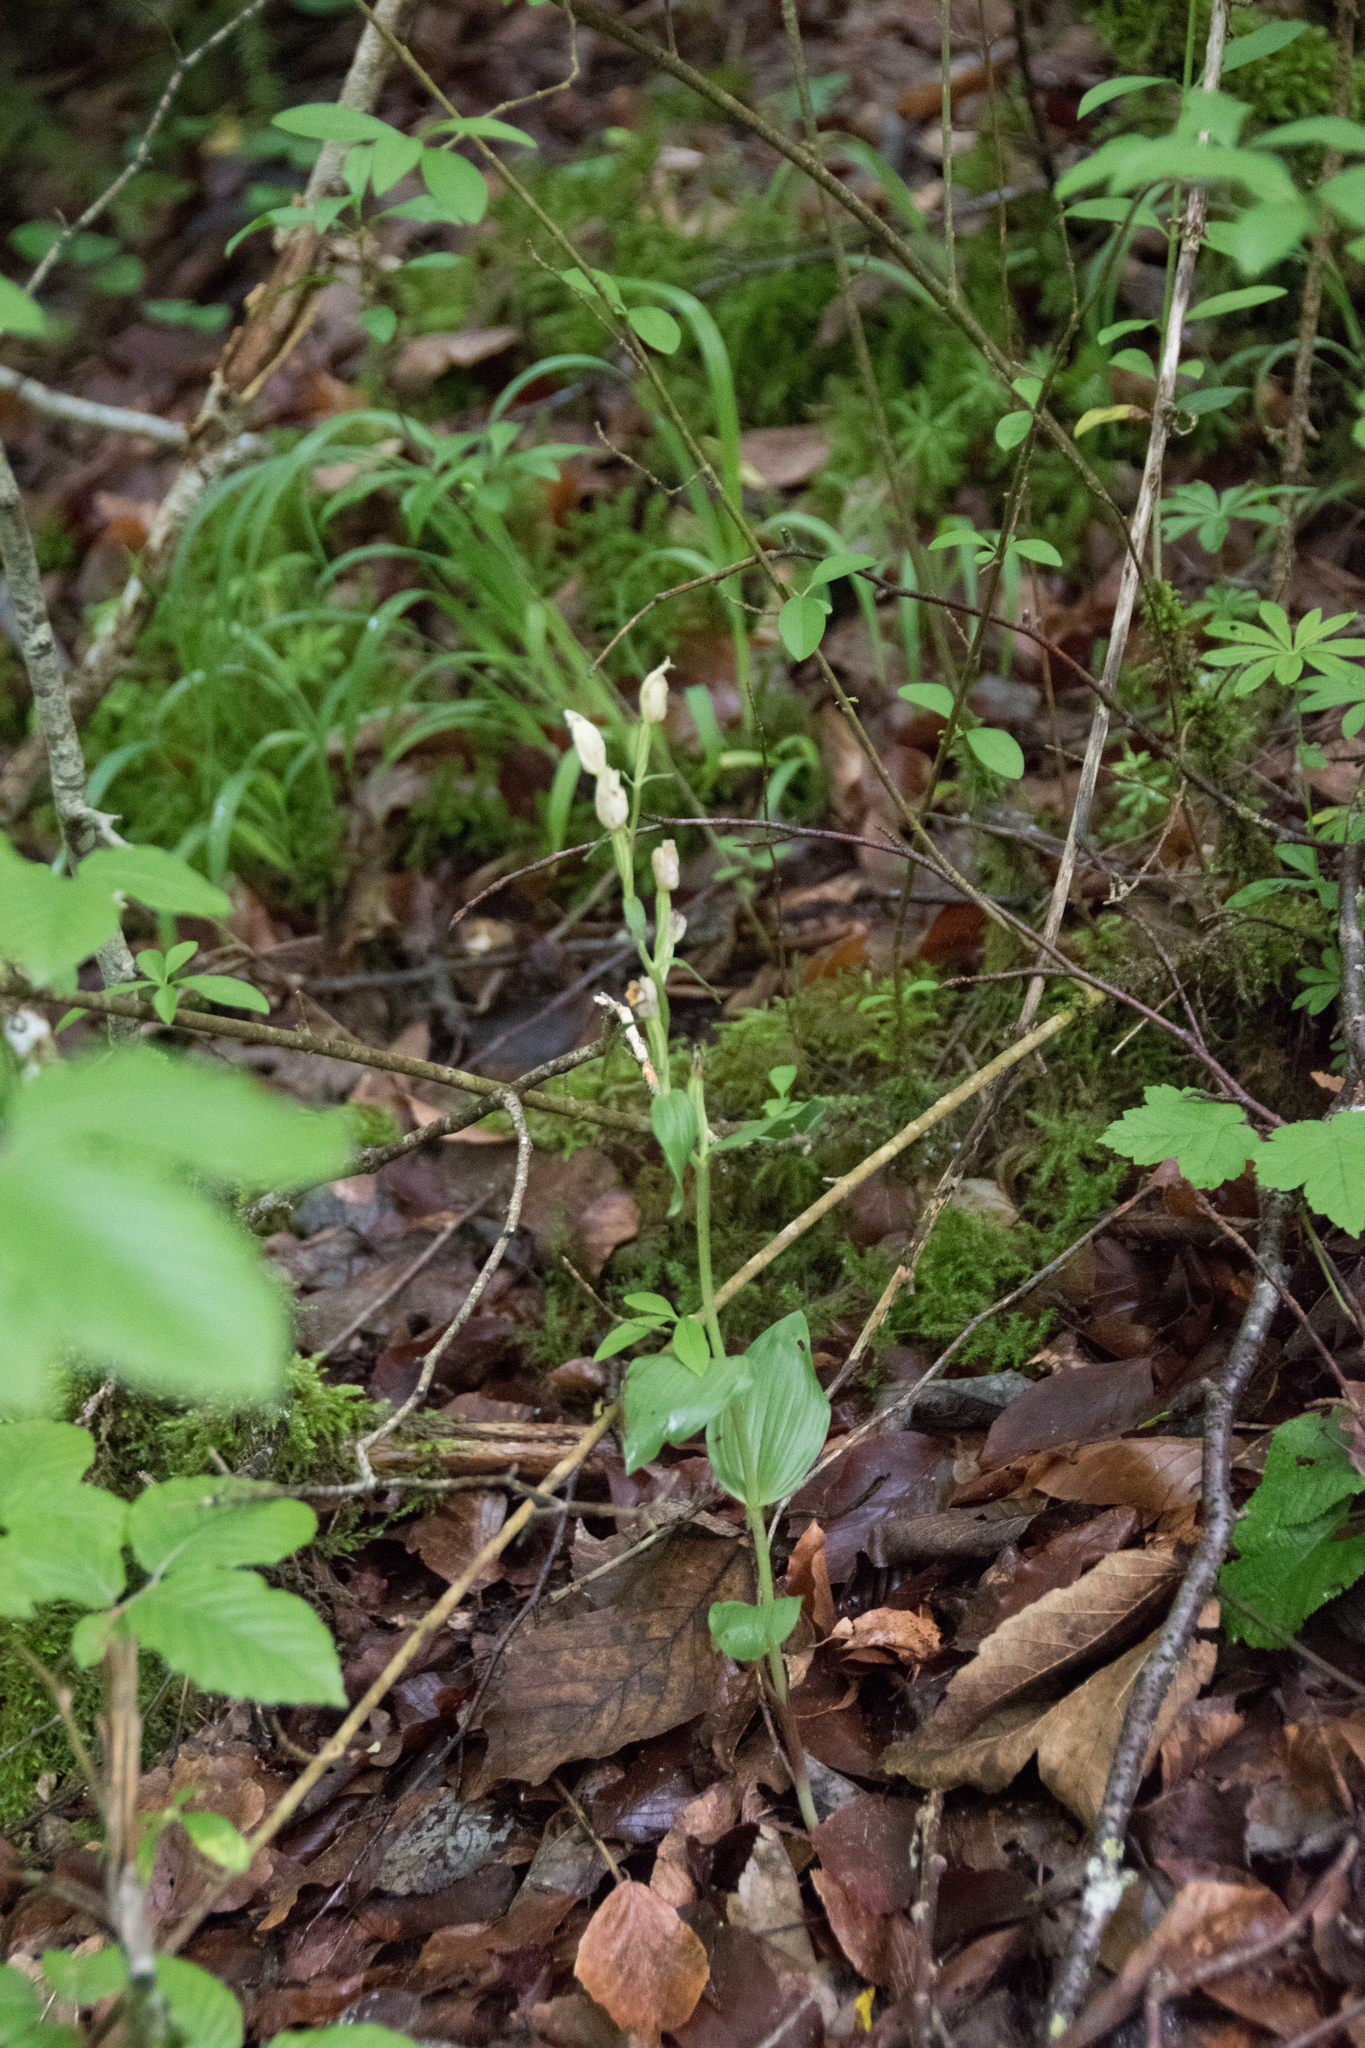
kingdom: Plantae
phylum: Tracheophyta
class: Liliopsida
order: Asparagales
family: Orchidaceae
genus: Cephalanthera
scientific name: Cephalanthera damasonium
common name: White helleborine
